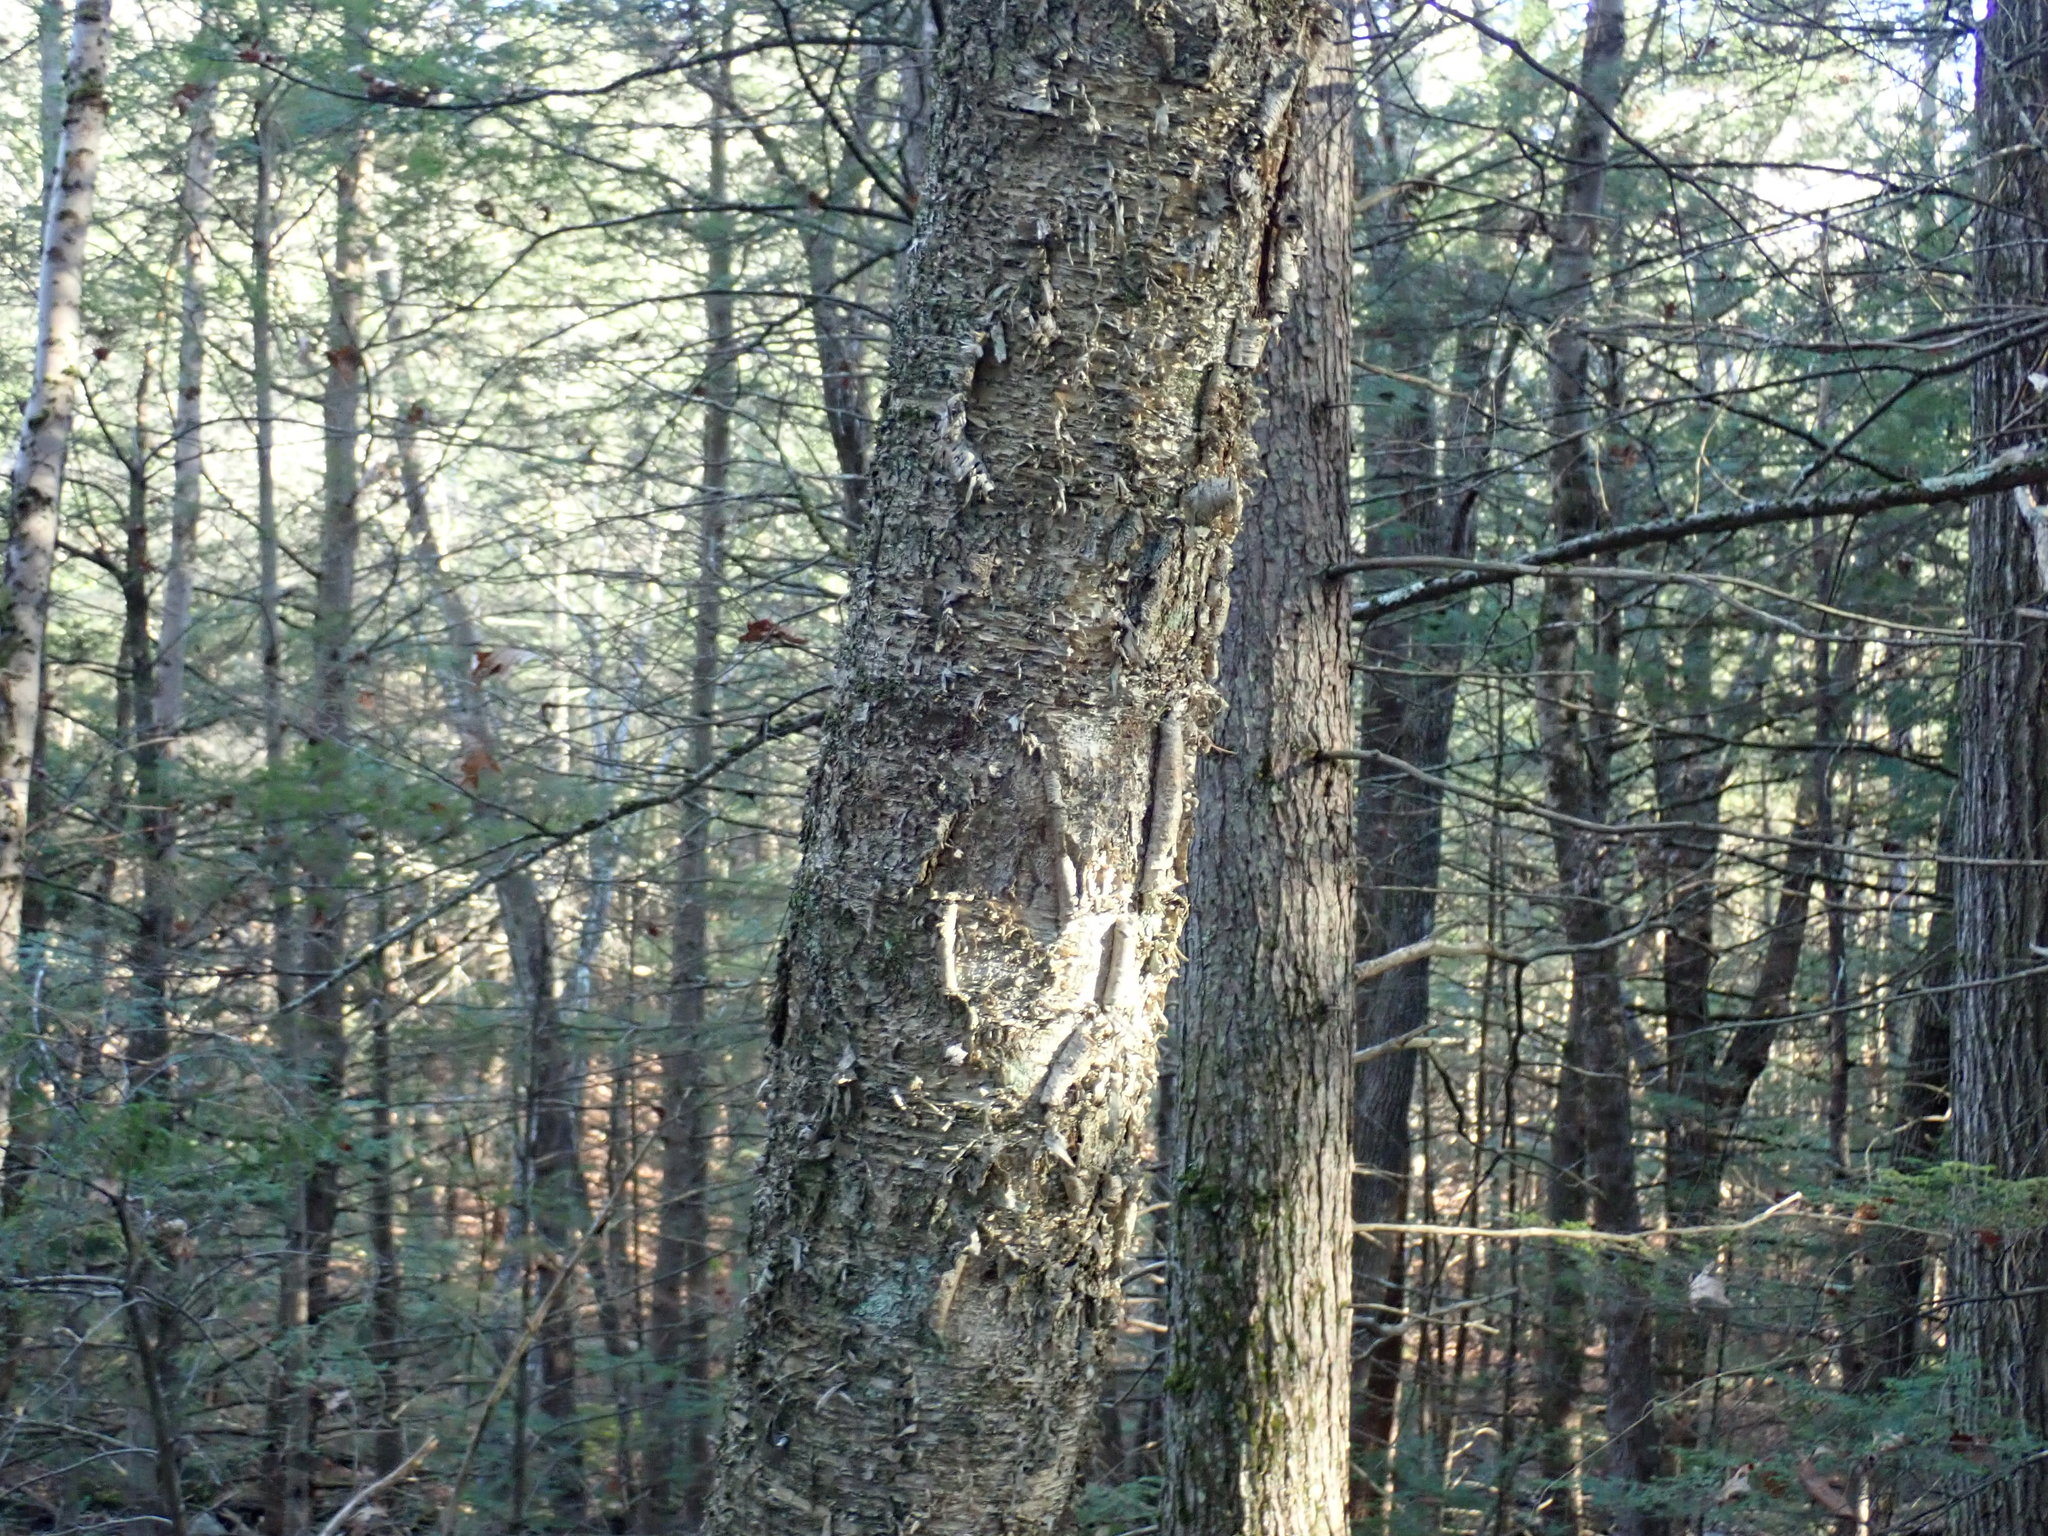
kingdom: Plantae
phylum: Tracheophyta
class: Magnoliopsida
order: Fagales
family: Betulaceae
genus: Betula
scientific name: Betula alleghaniensis
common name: Yellow birch
